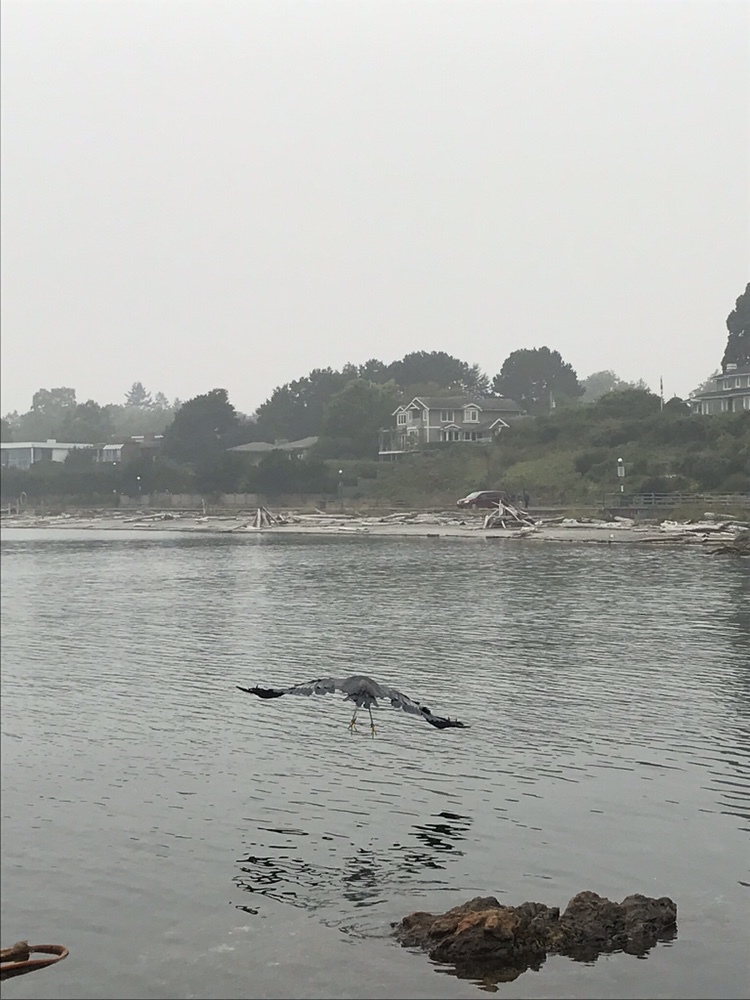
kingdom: Animalia
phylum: Chordata
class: Aves
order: Pelecaniformes
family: Ardeidae
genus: Ardea
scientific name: Ardea herodias
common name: Great blue heron
